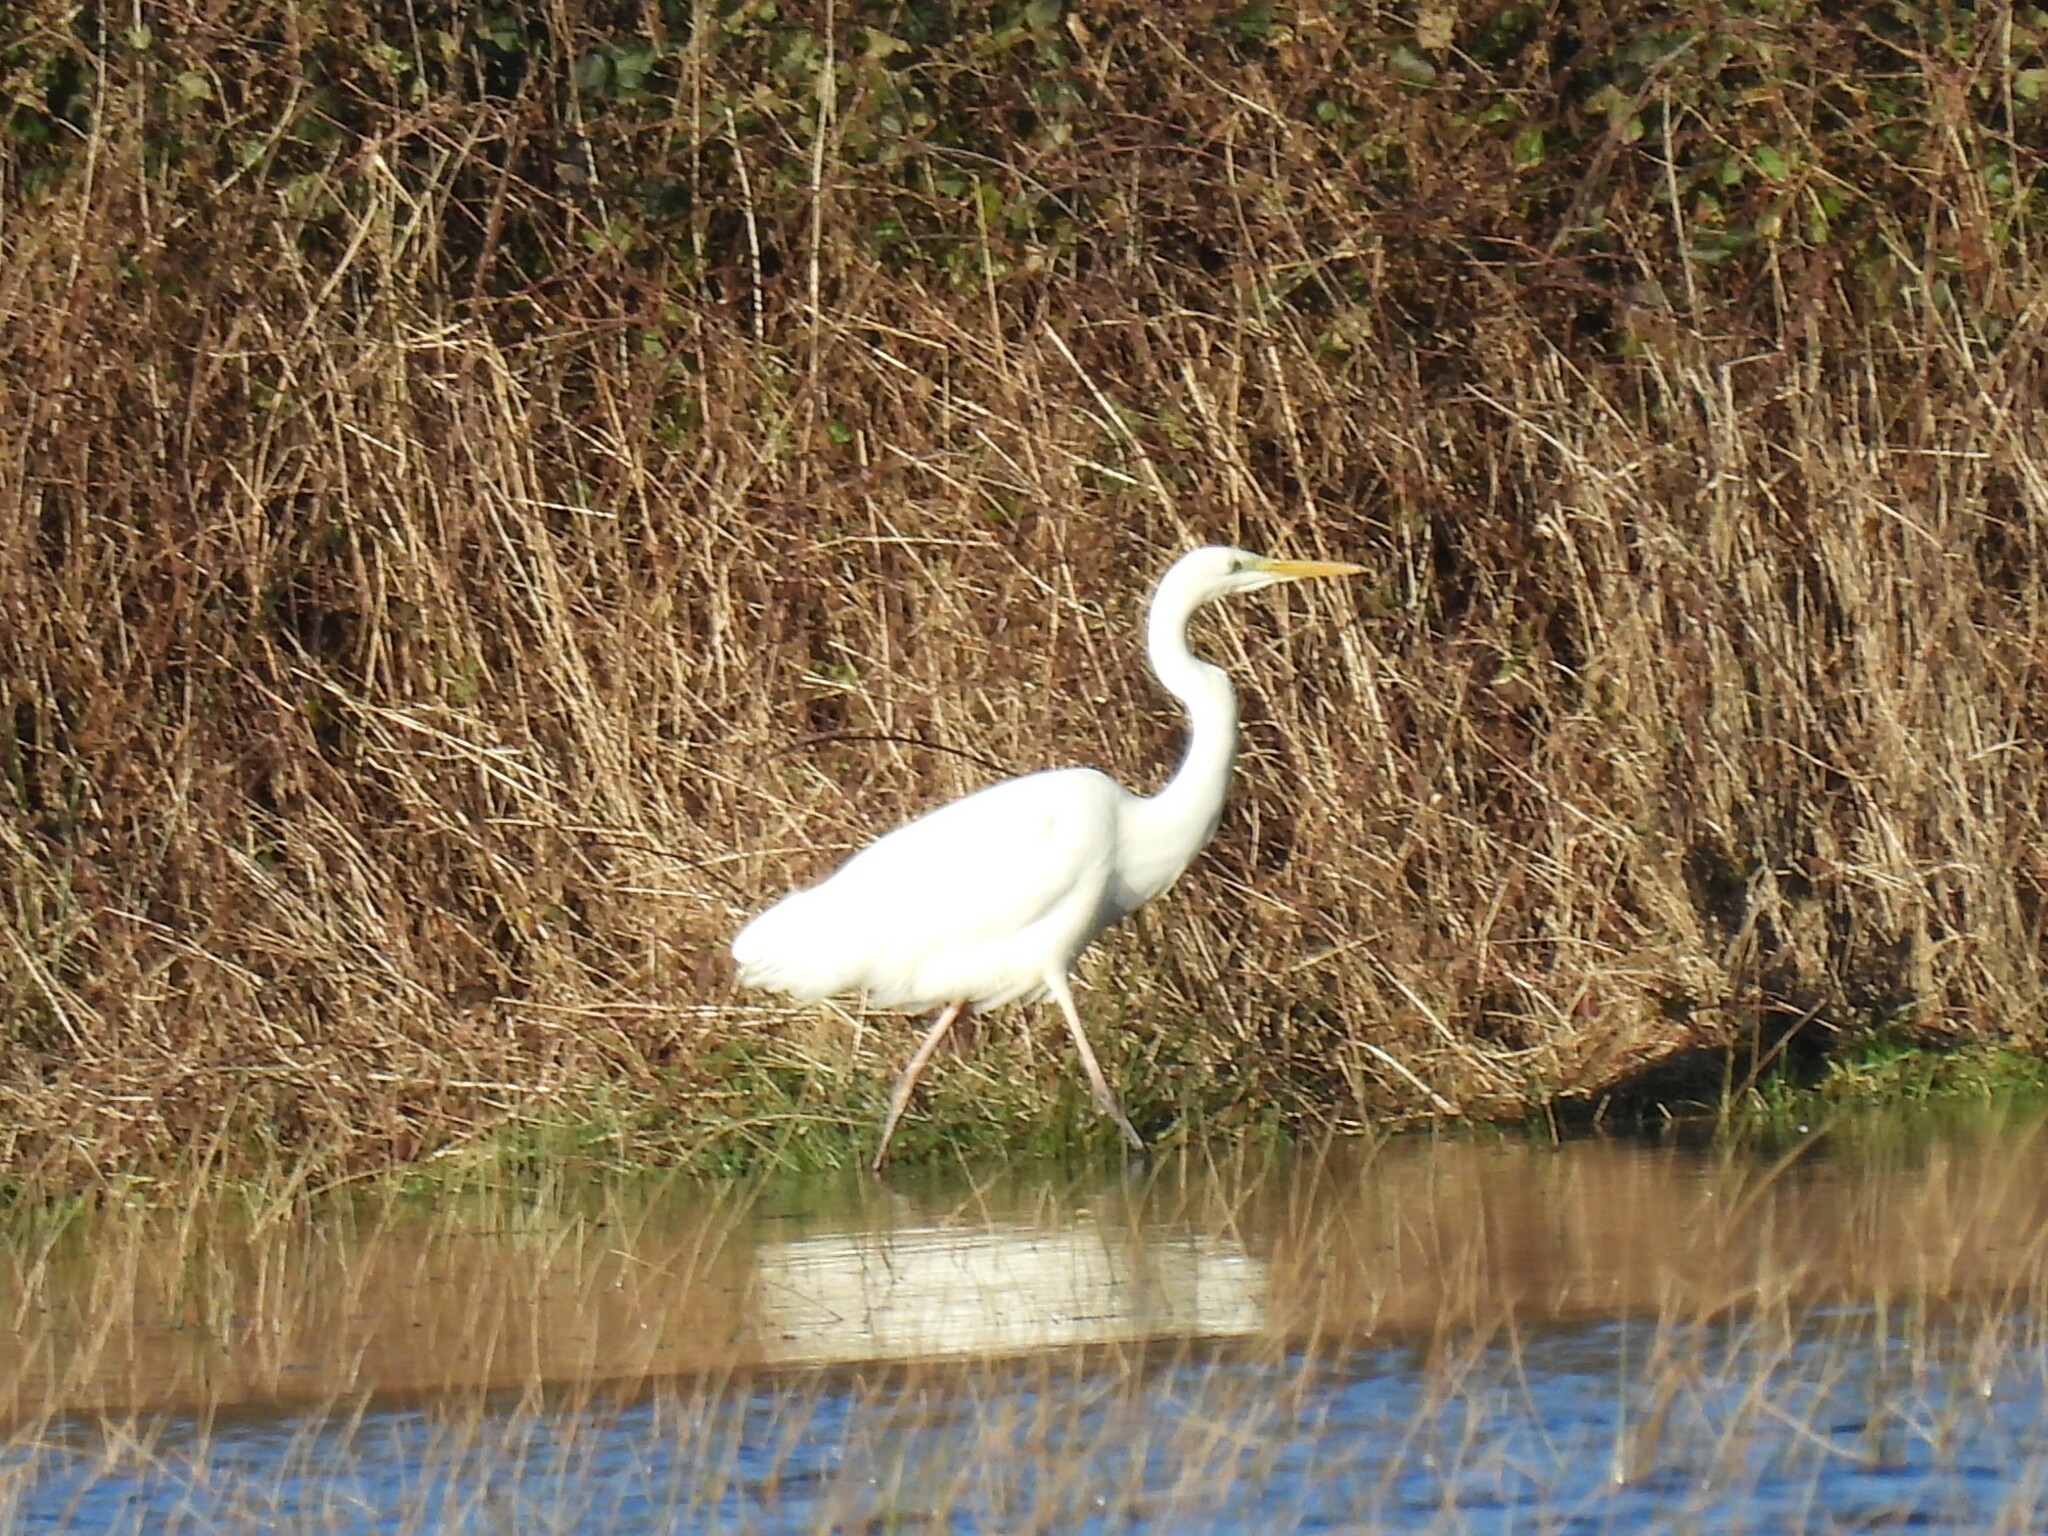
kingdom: Animalia
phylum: Chordata
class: Aves
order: Pelecaniformes
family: Ardeidae
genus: Ardea
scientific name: Ardea alba
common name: Great egret
